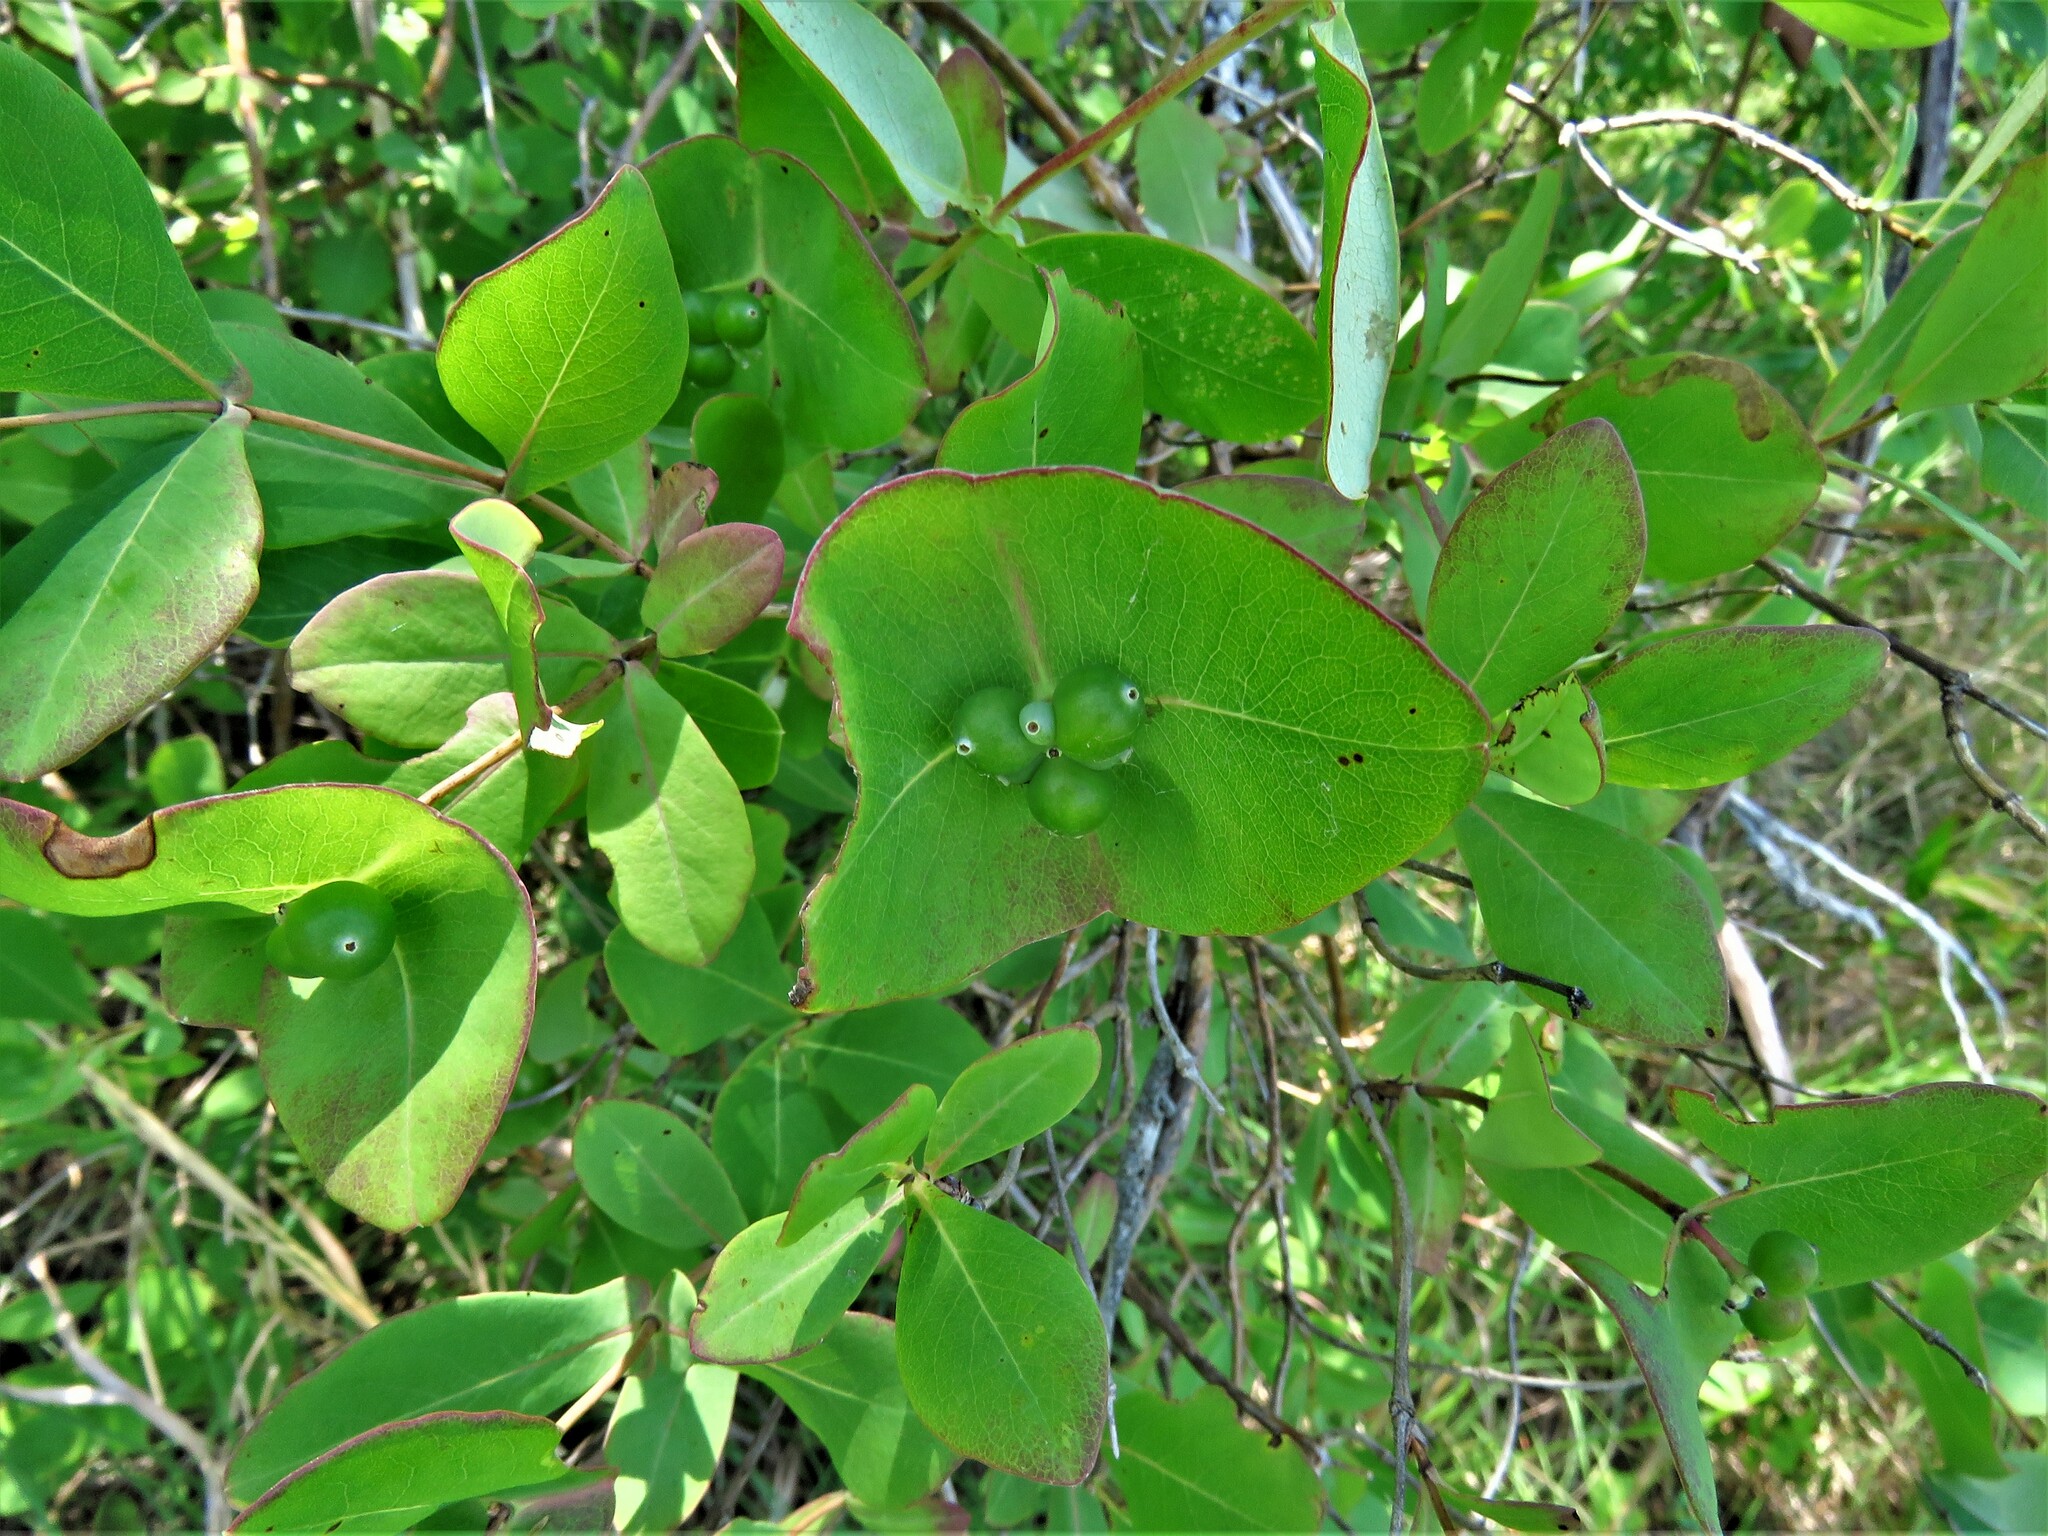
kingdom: Plantae
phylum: Tracheophyta
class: Magnoliopsida
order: Dipsacales
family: Caprifoliaceae
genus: Lonicera
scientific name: Lonicera sempervirens
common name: Coral honeysuckle
